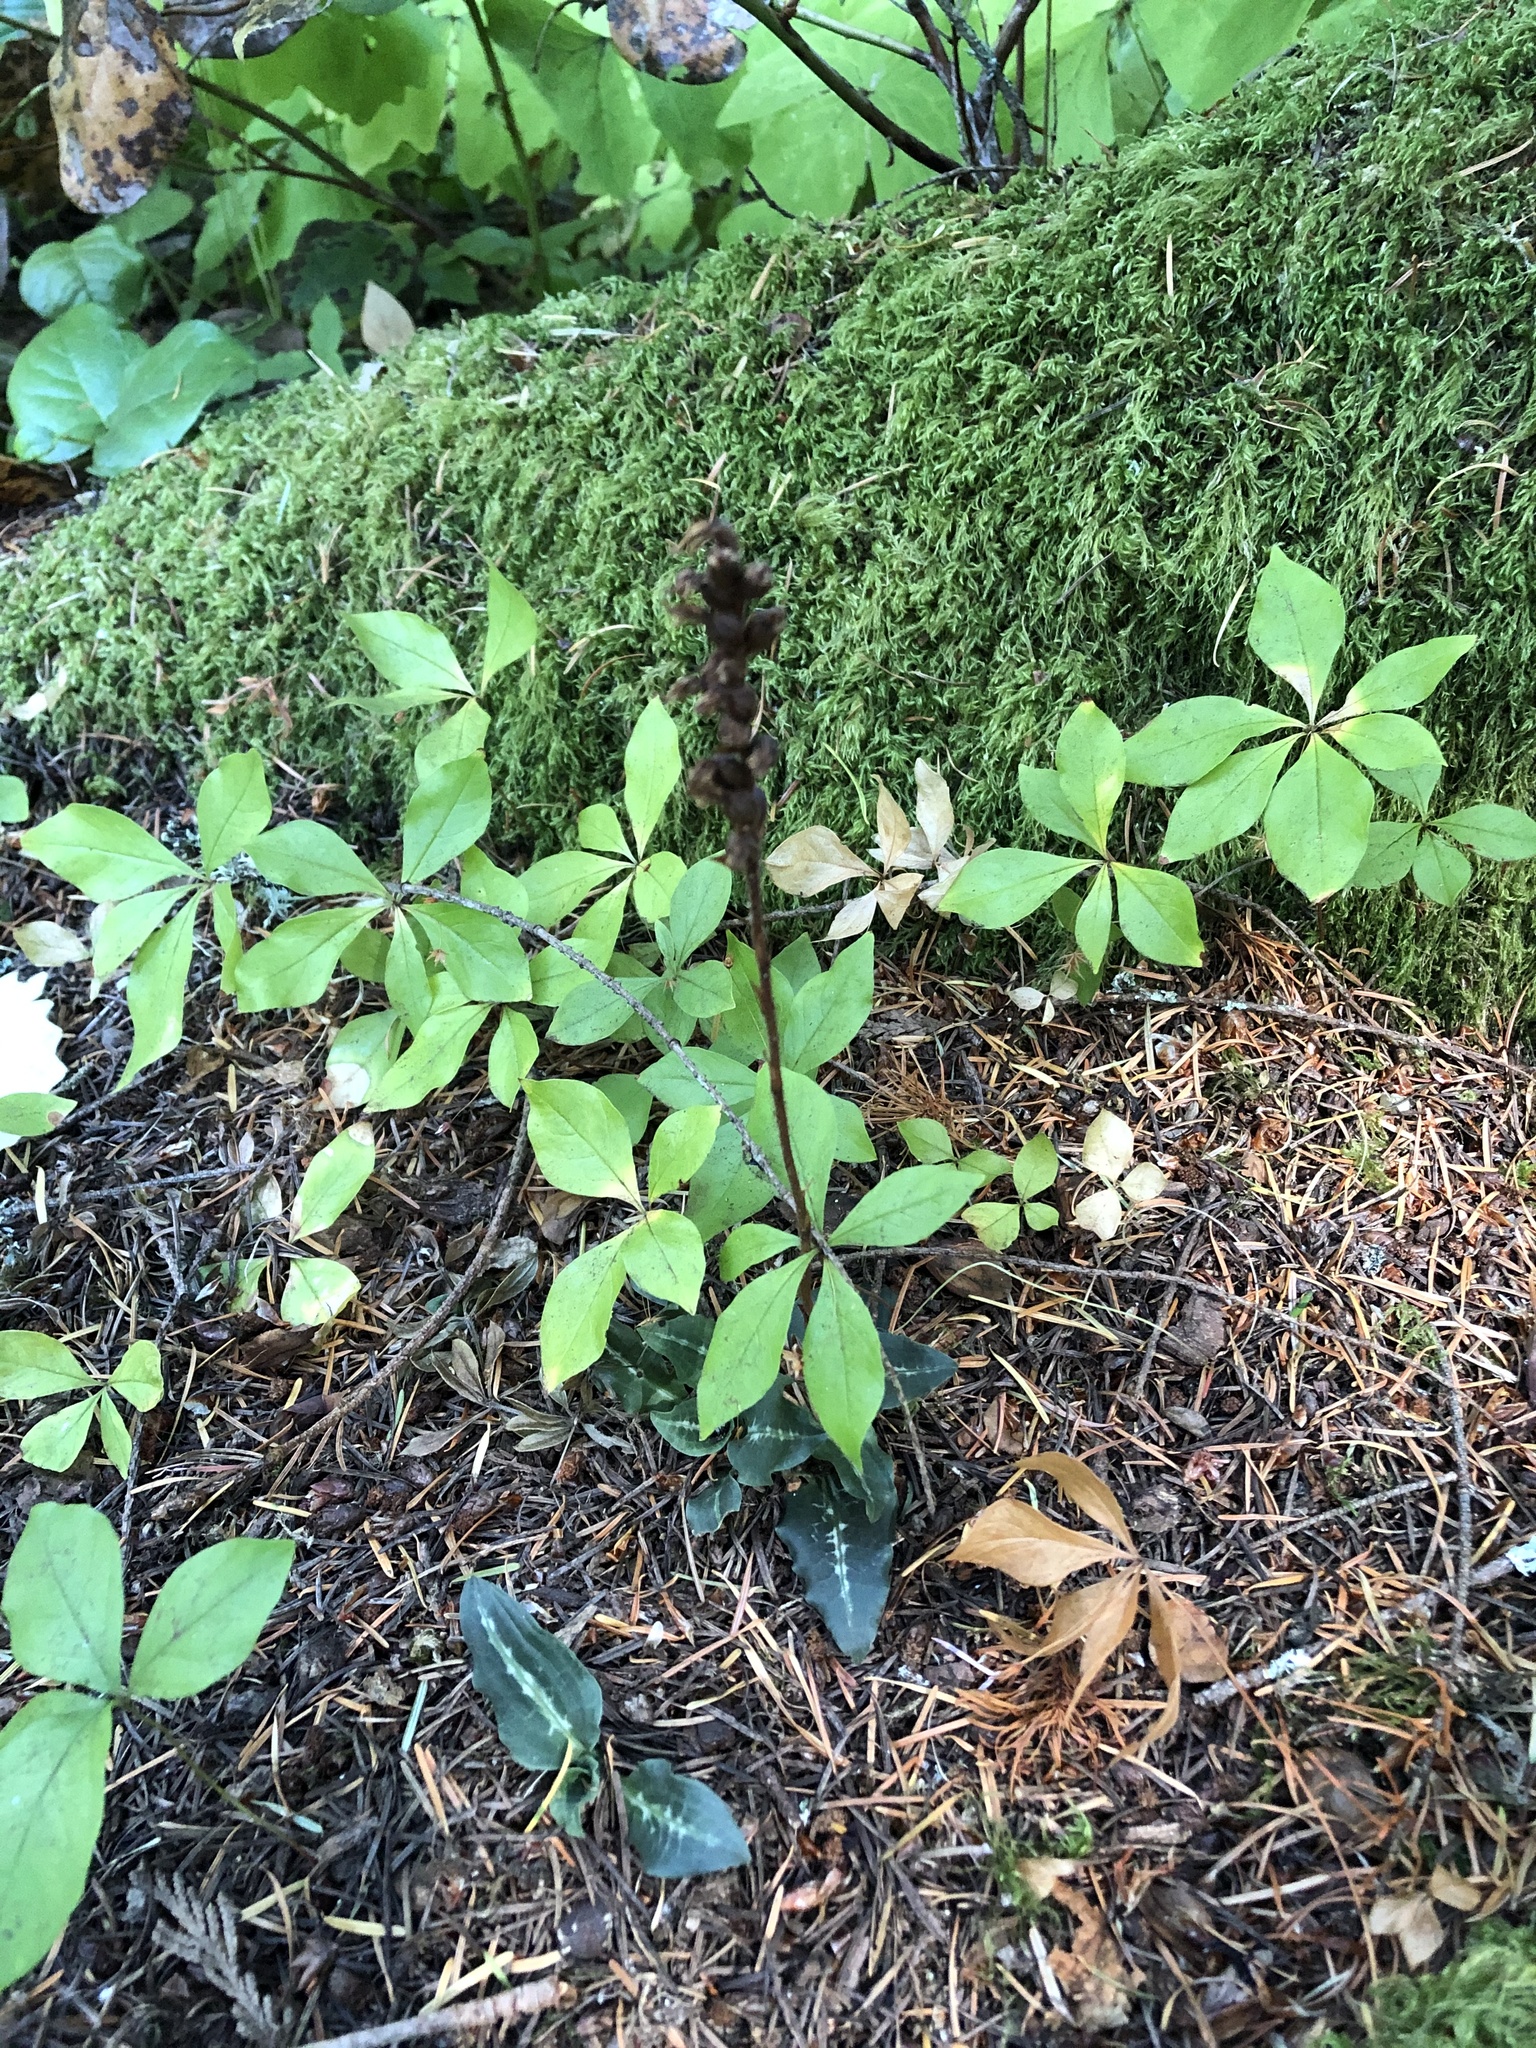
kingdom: Plantae
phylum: Tracheophyta
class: Liliopsida
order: Asparagales
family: Orchidaceae
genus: Goodyera
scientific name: Goodyera oblongifolia
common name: Giant rattlesnake-plantain
